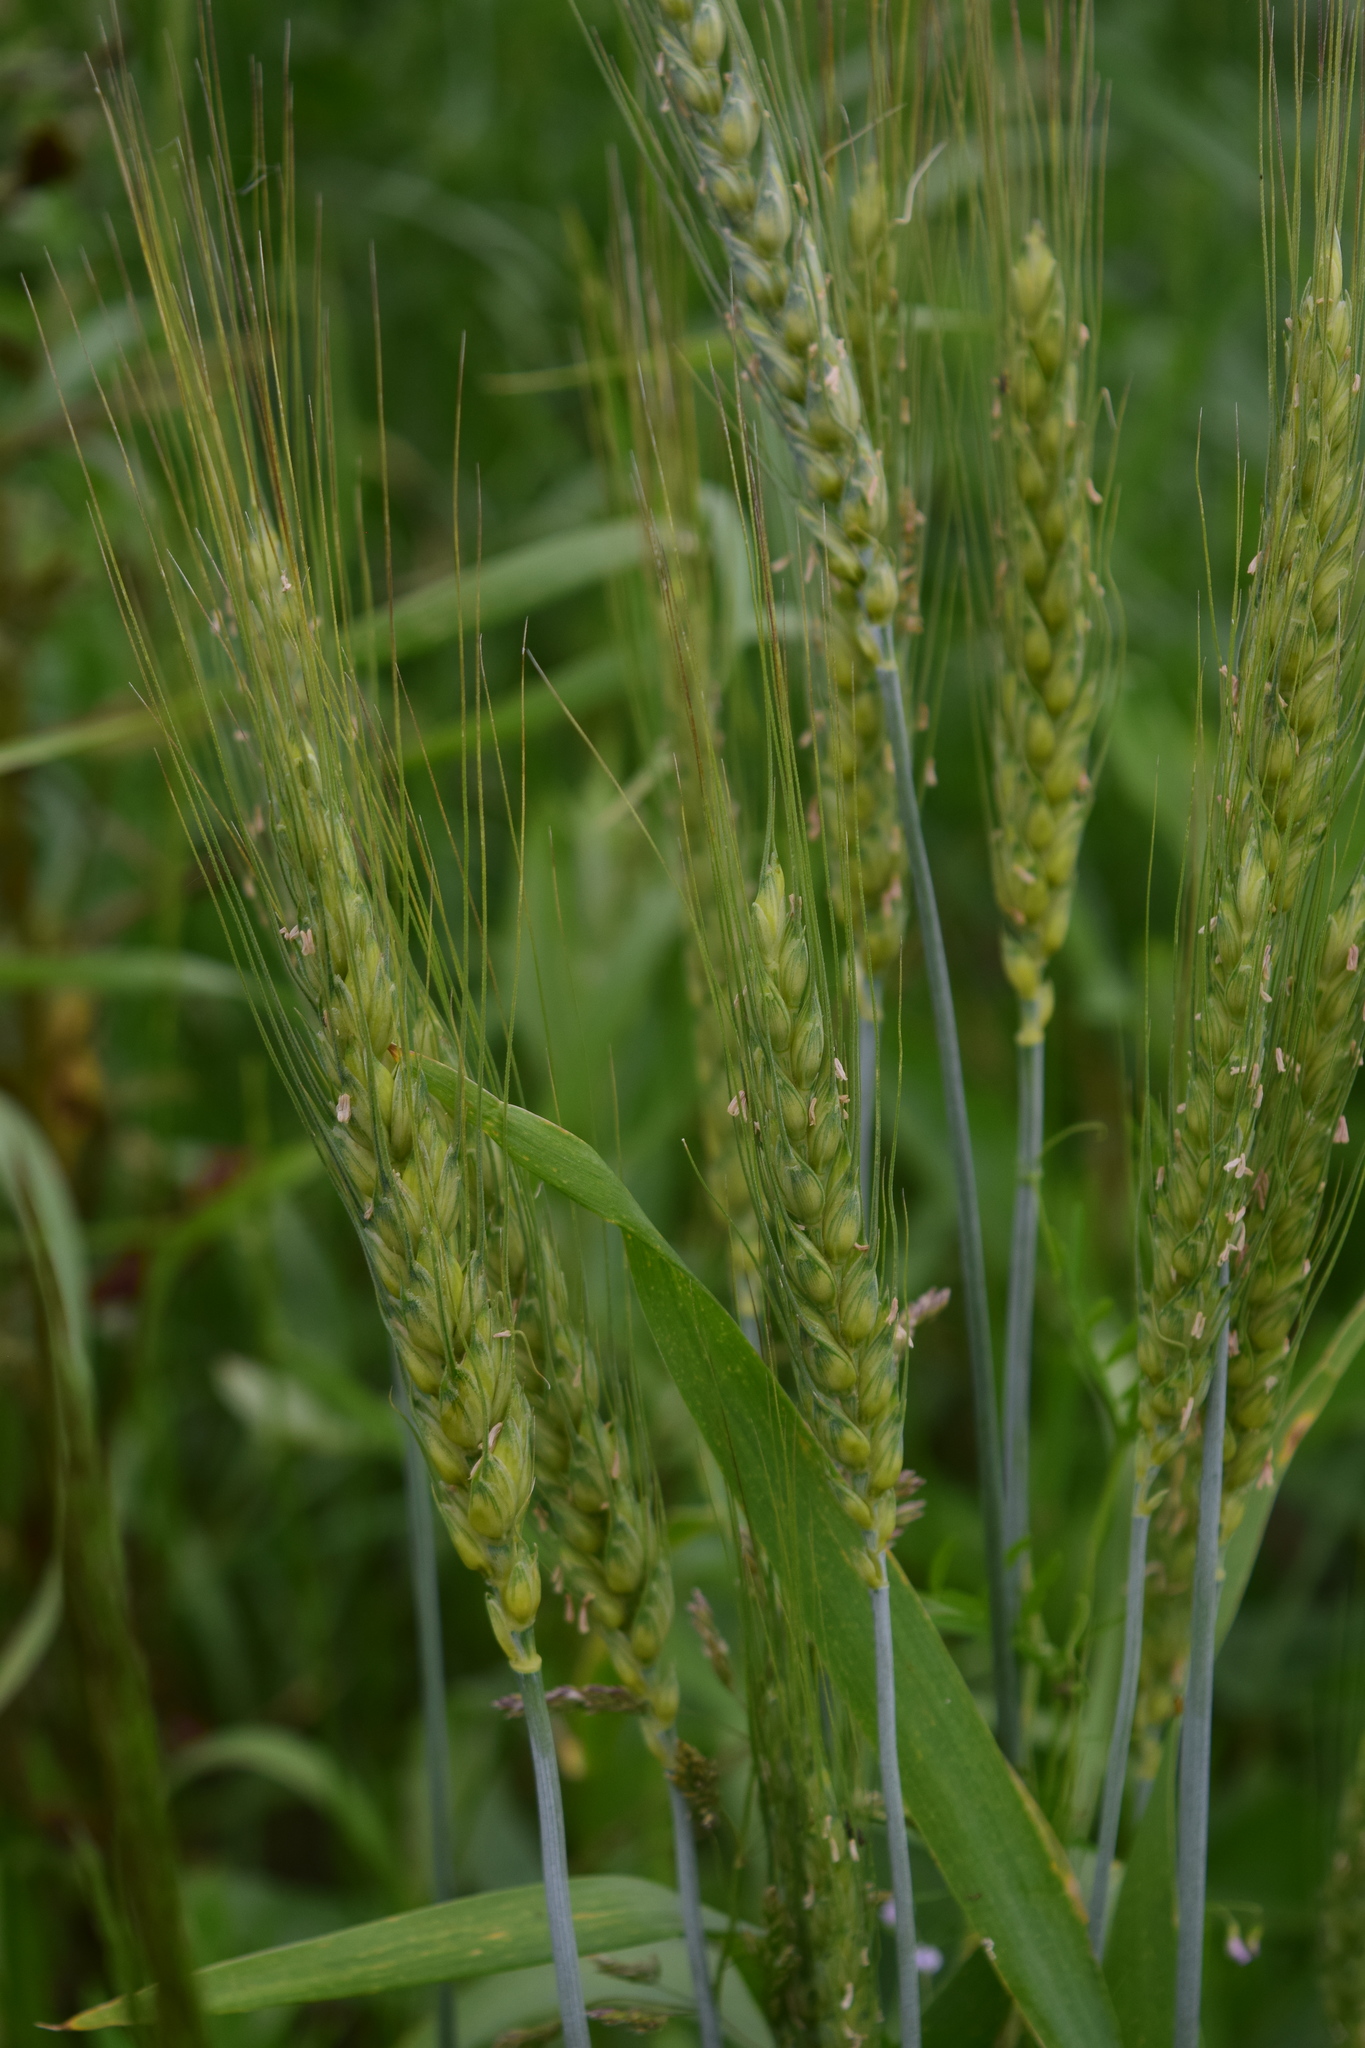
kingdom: Plantae
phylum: Tracheophyta
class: Liliopsida
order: Poales
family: Poaceae
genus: Triticum
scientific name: Triticum aestivum
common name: Common wheat
